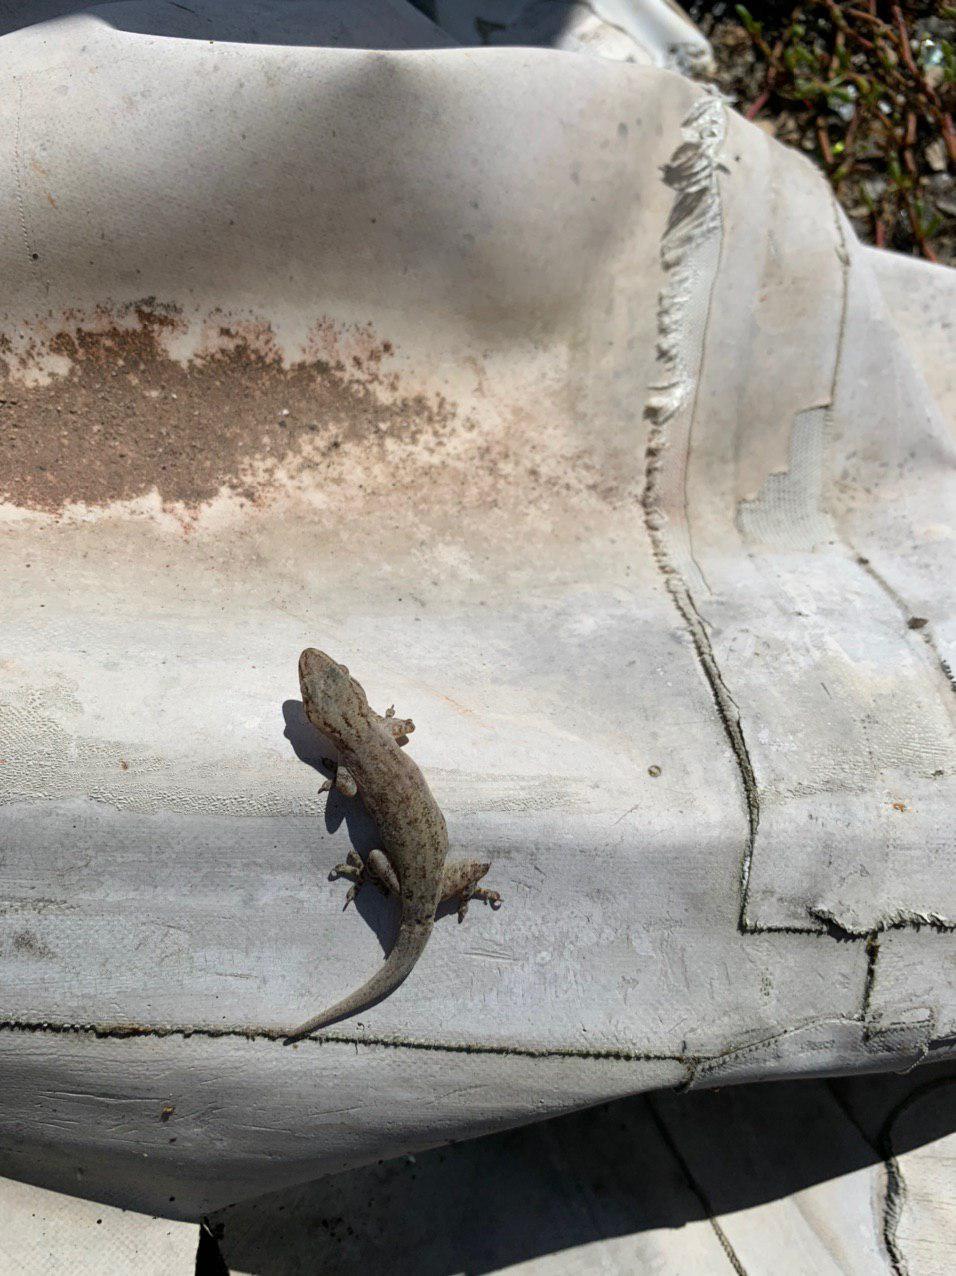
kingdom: Animalia
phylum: Chordata
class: Squamata
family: Gekkonidae
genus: Hemidactylus
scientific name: Hemidactylus frenatus
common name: Common house gecko
